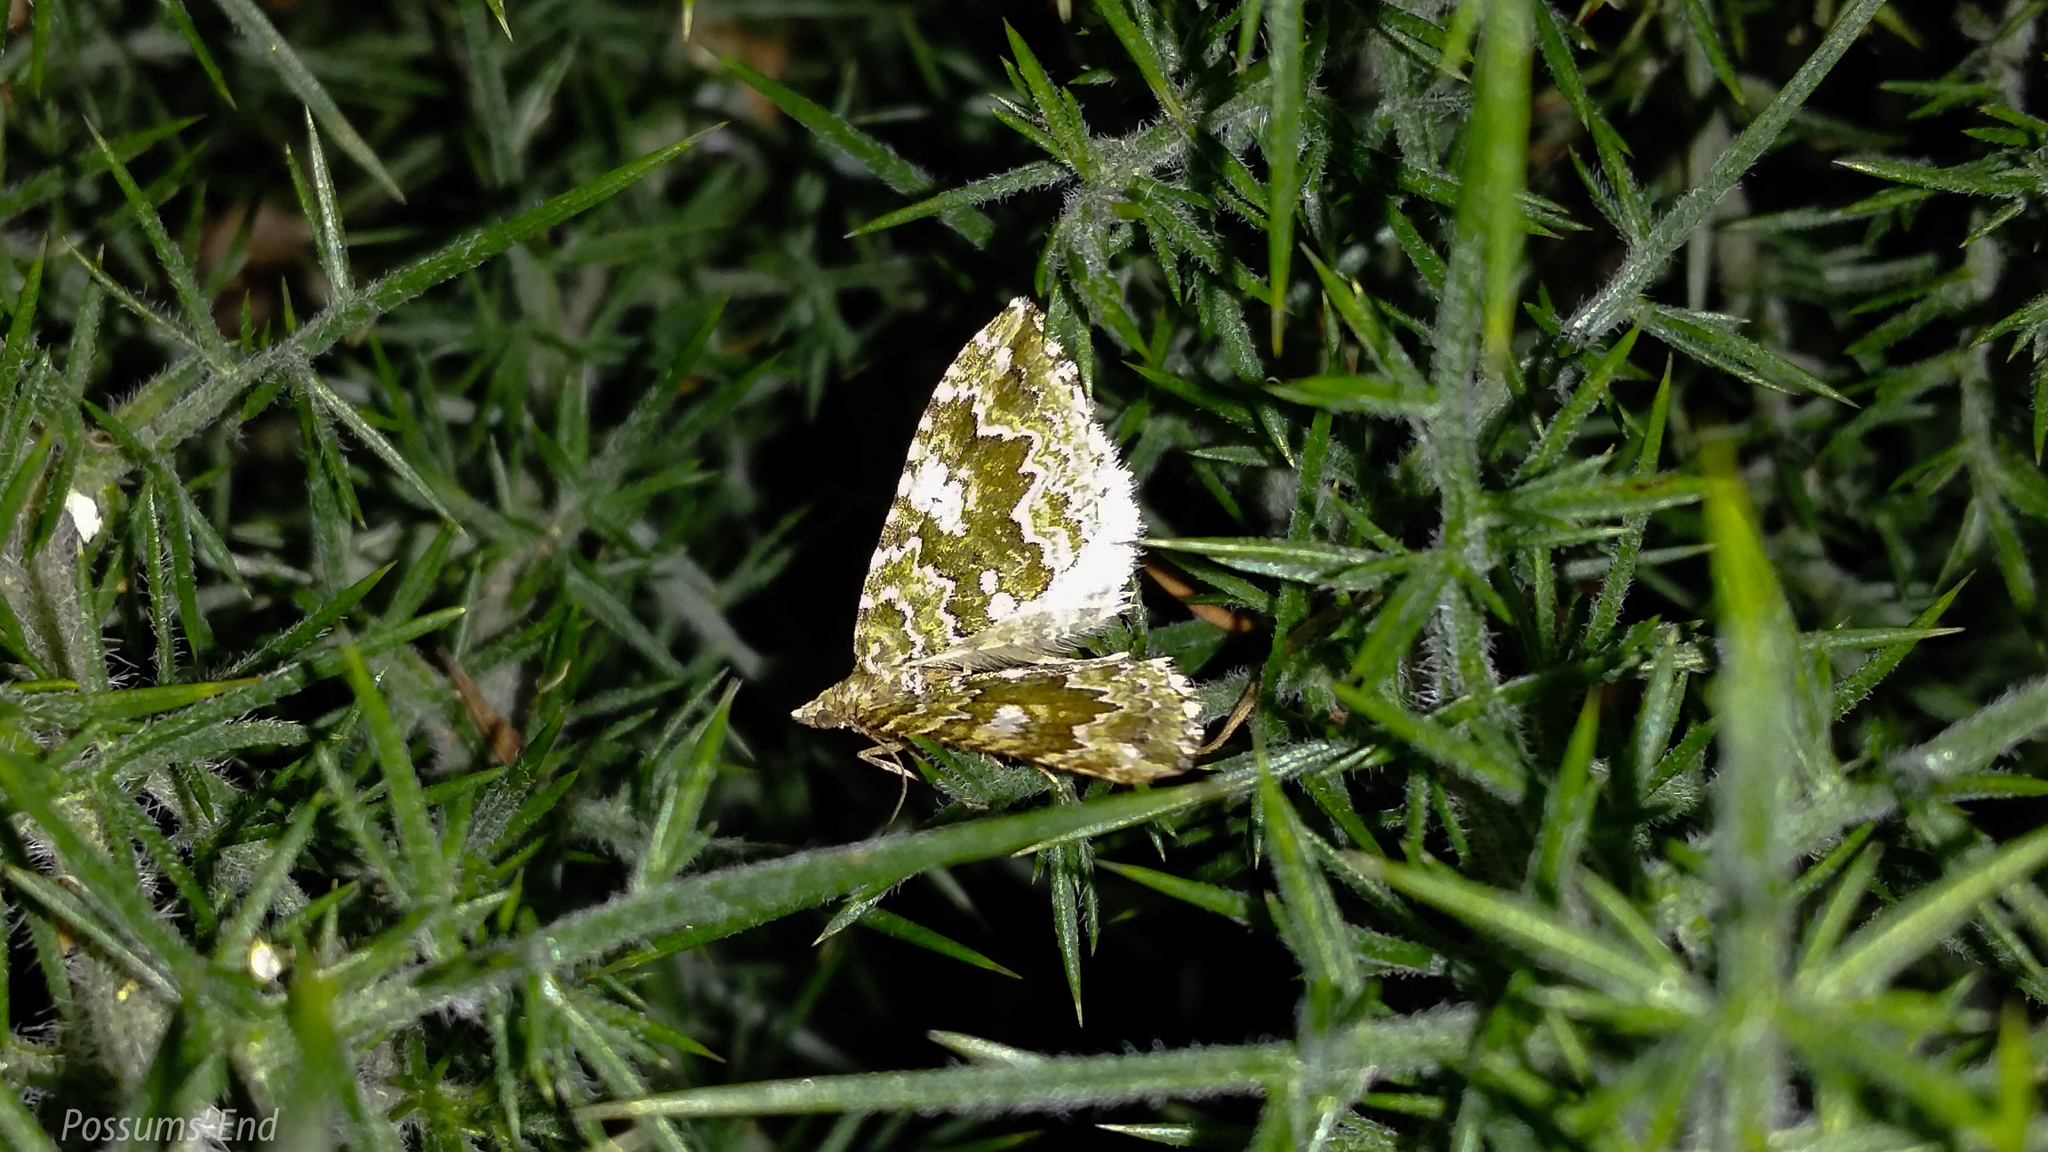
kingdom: Animalia
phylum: Arthropoda
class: Insecta
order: Lepidoptera
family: Geometridae
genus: Asaphodes
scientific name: Asaphodes beata
